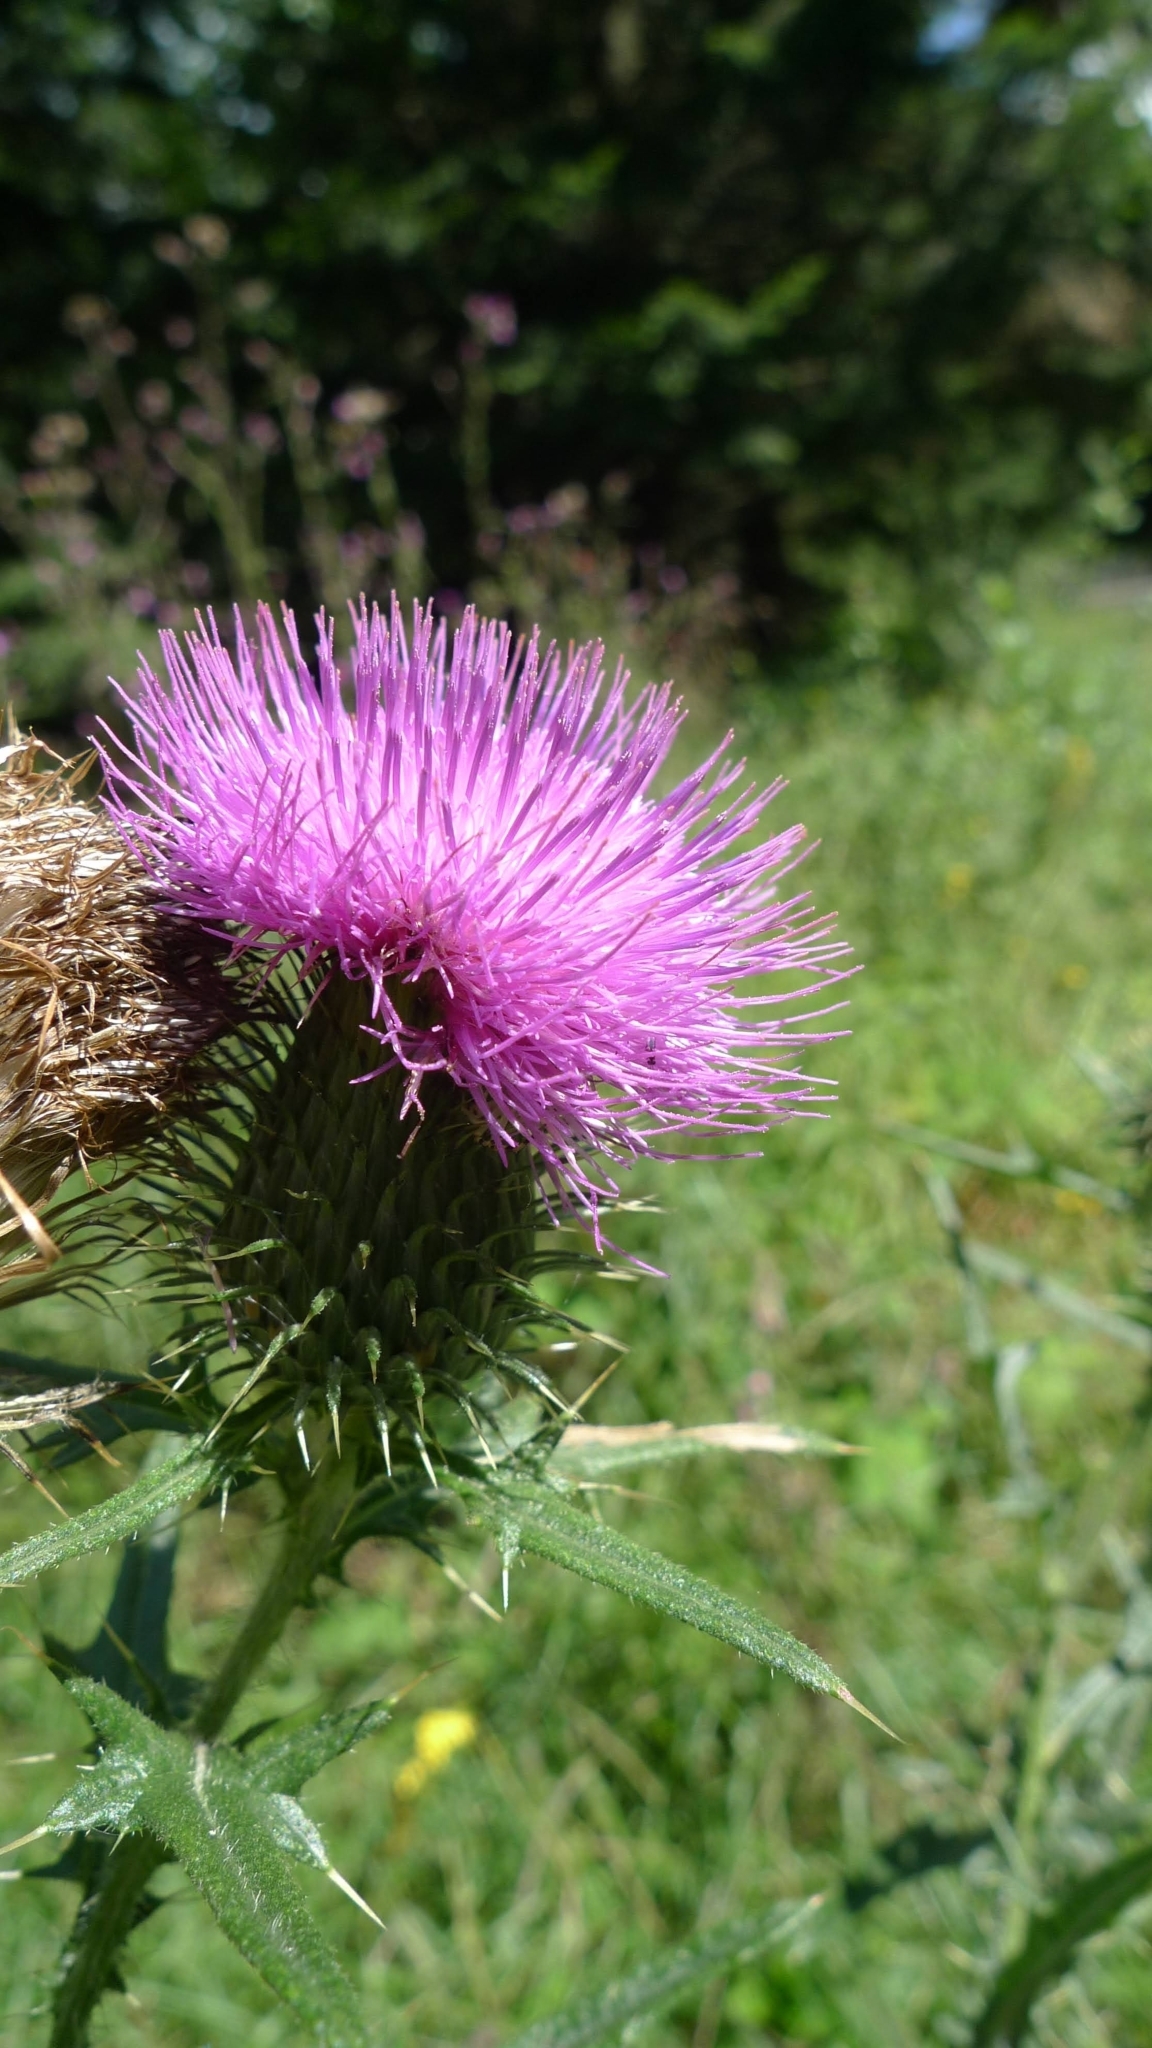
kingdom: Plantae
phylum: Tracheophyta
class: Magnoliopsida
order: Asterales
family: Asteraceae
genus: Cirsium
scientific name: Cirsium vulgare
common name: Bull thistle
